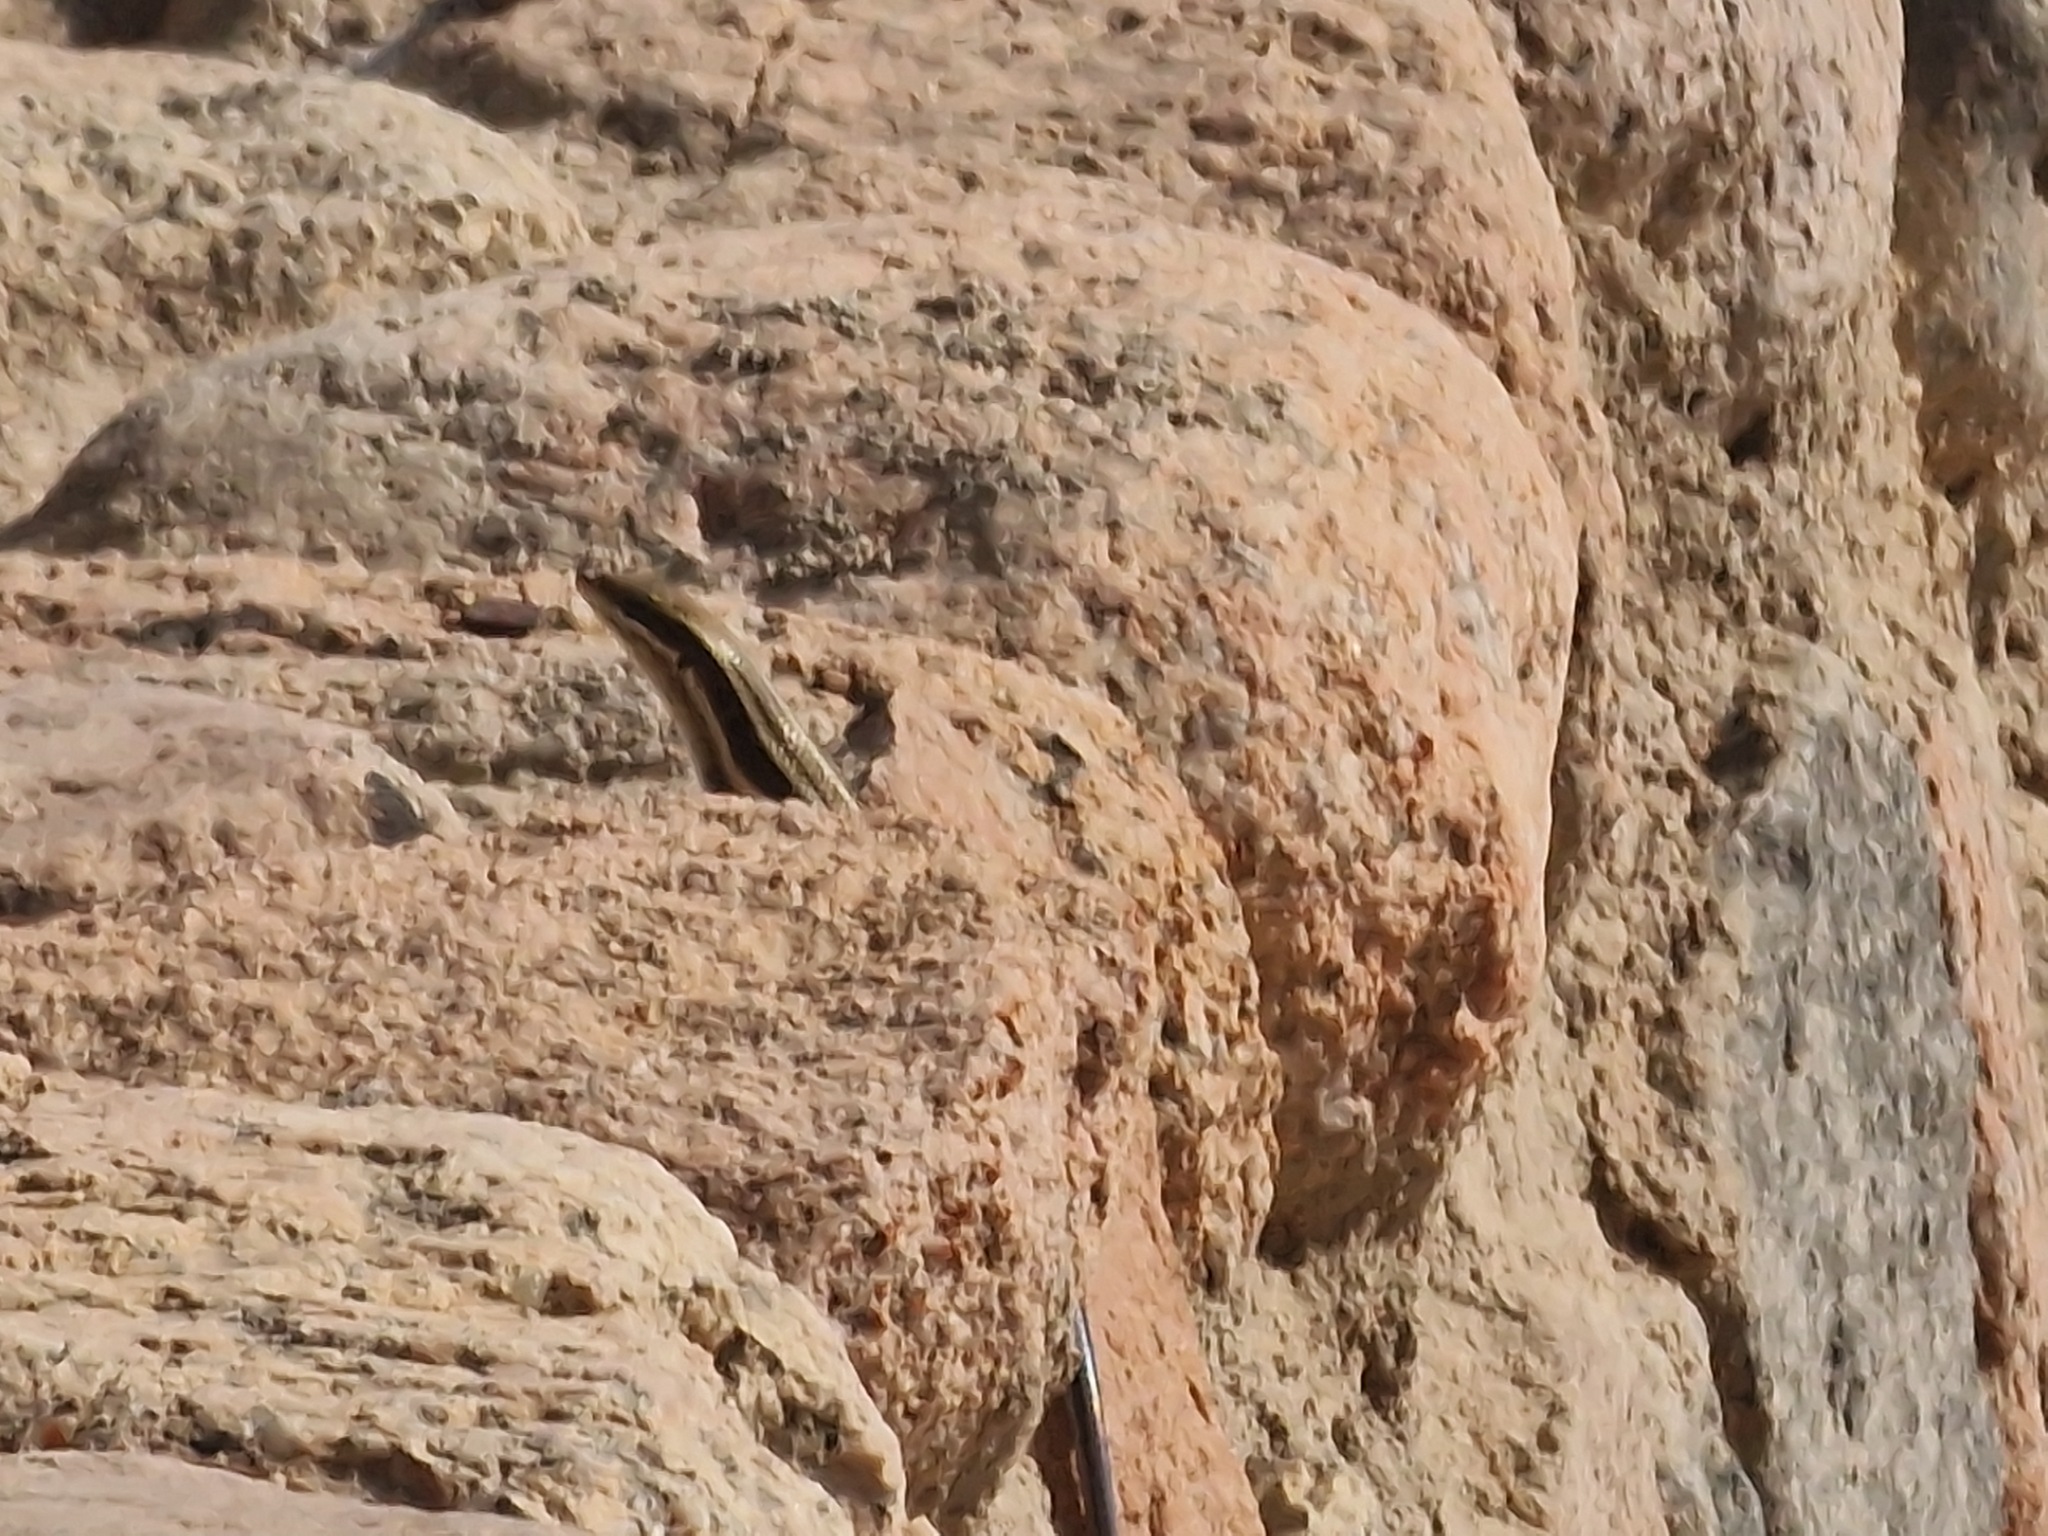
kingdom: Animalia
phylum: Chordata
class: Squamata
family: Scincidae
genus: Trachylepis
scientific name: Trachylepis quinquetaeniata
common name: African five-lined skink
